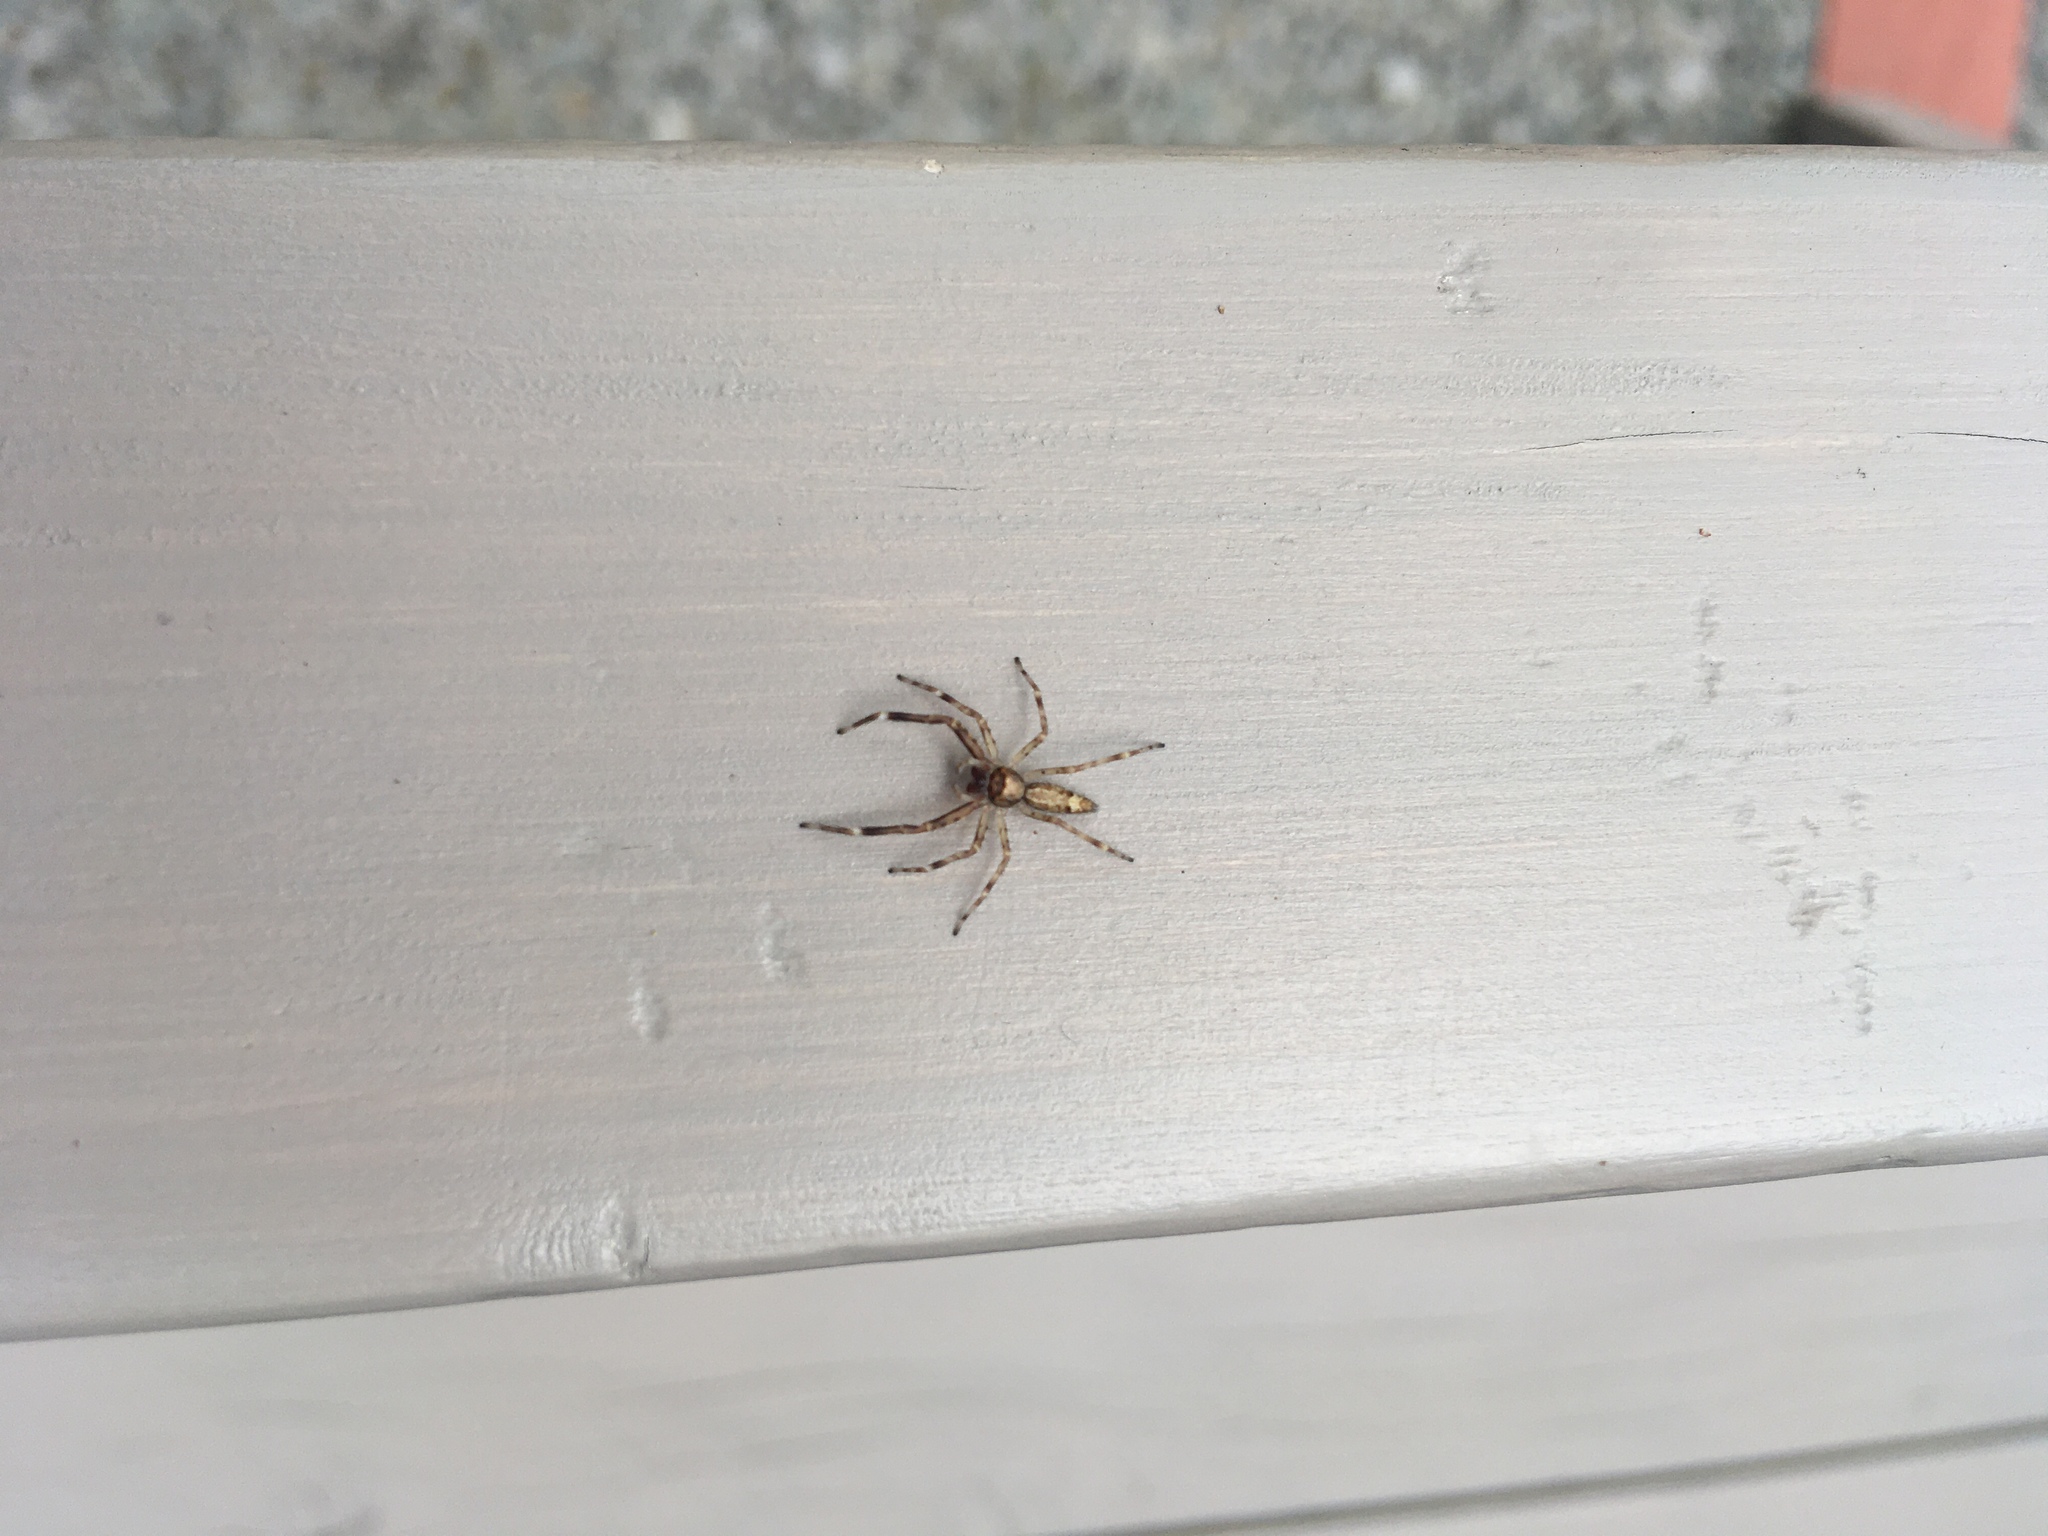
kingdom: Animalia
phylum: Arthropoda
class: Arachnida
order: Araneae
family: Salticidae
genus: Helpis
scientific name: Helpis minitabunda
